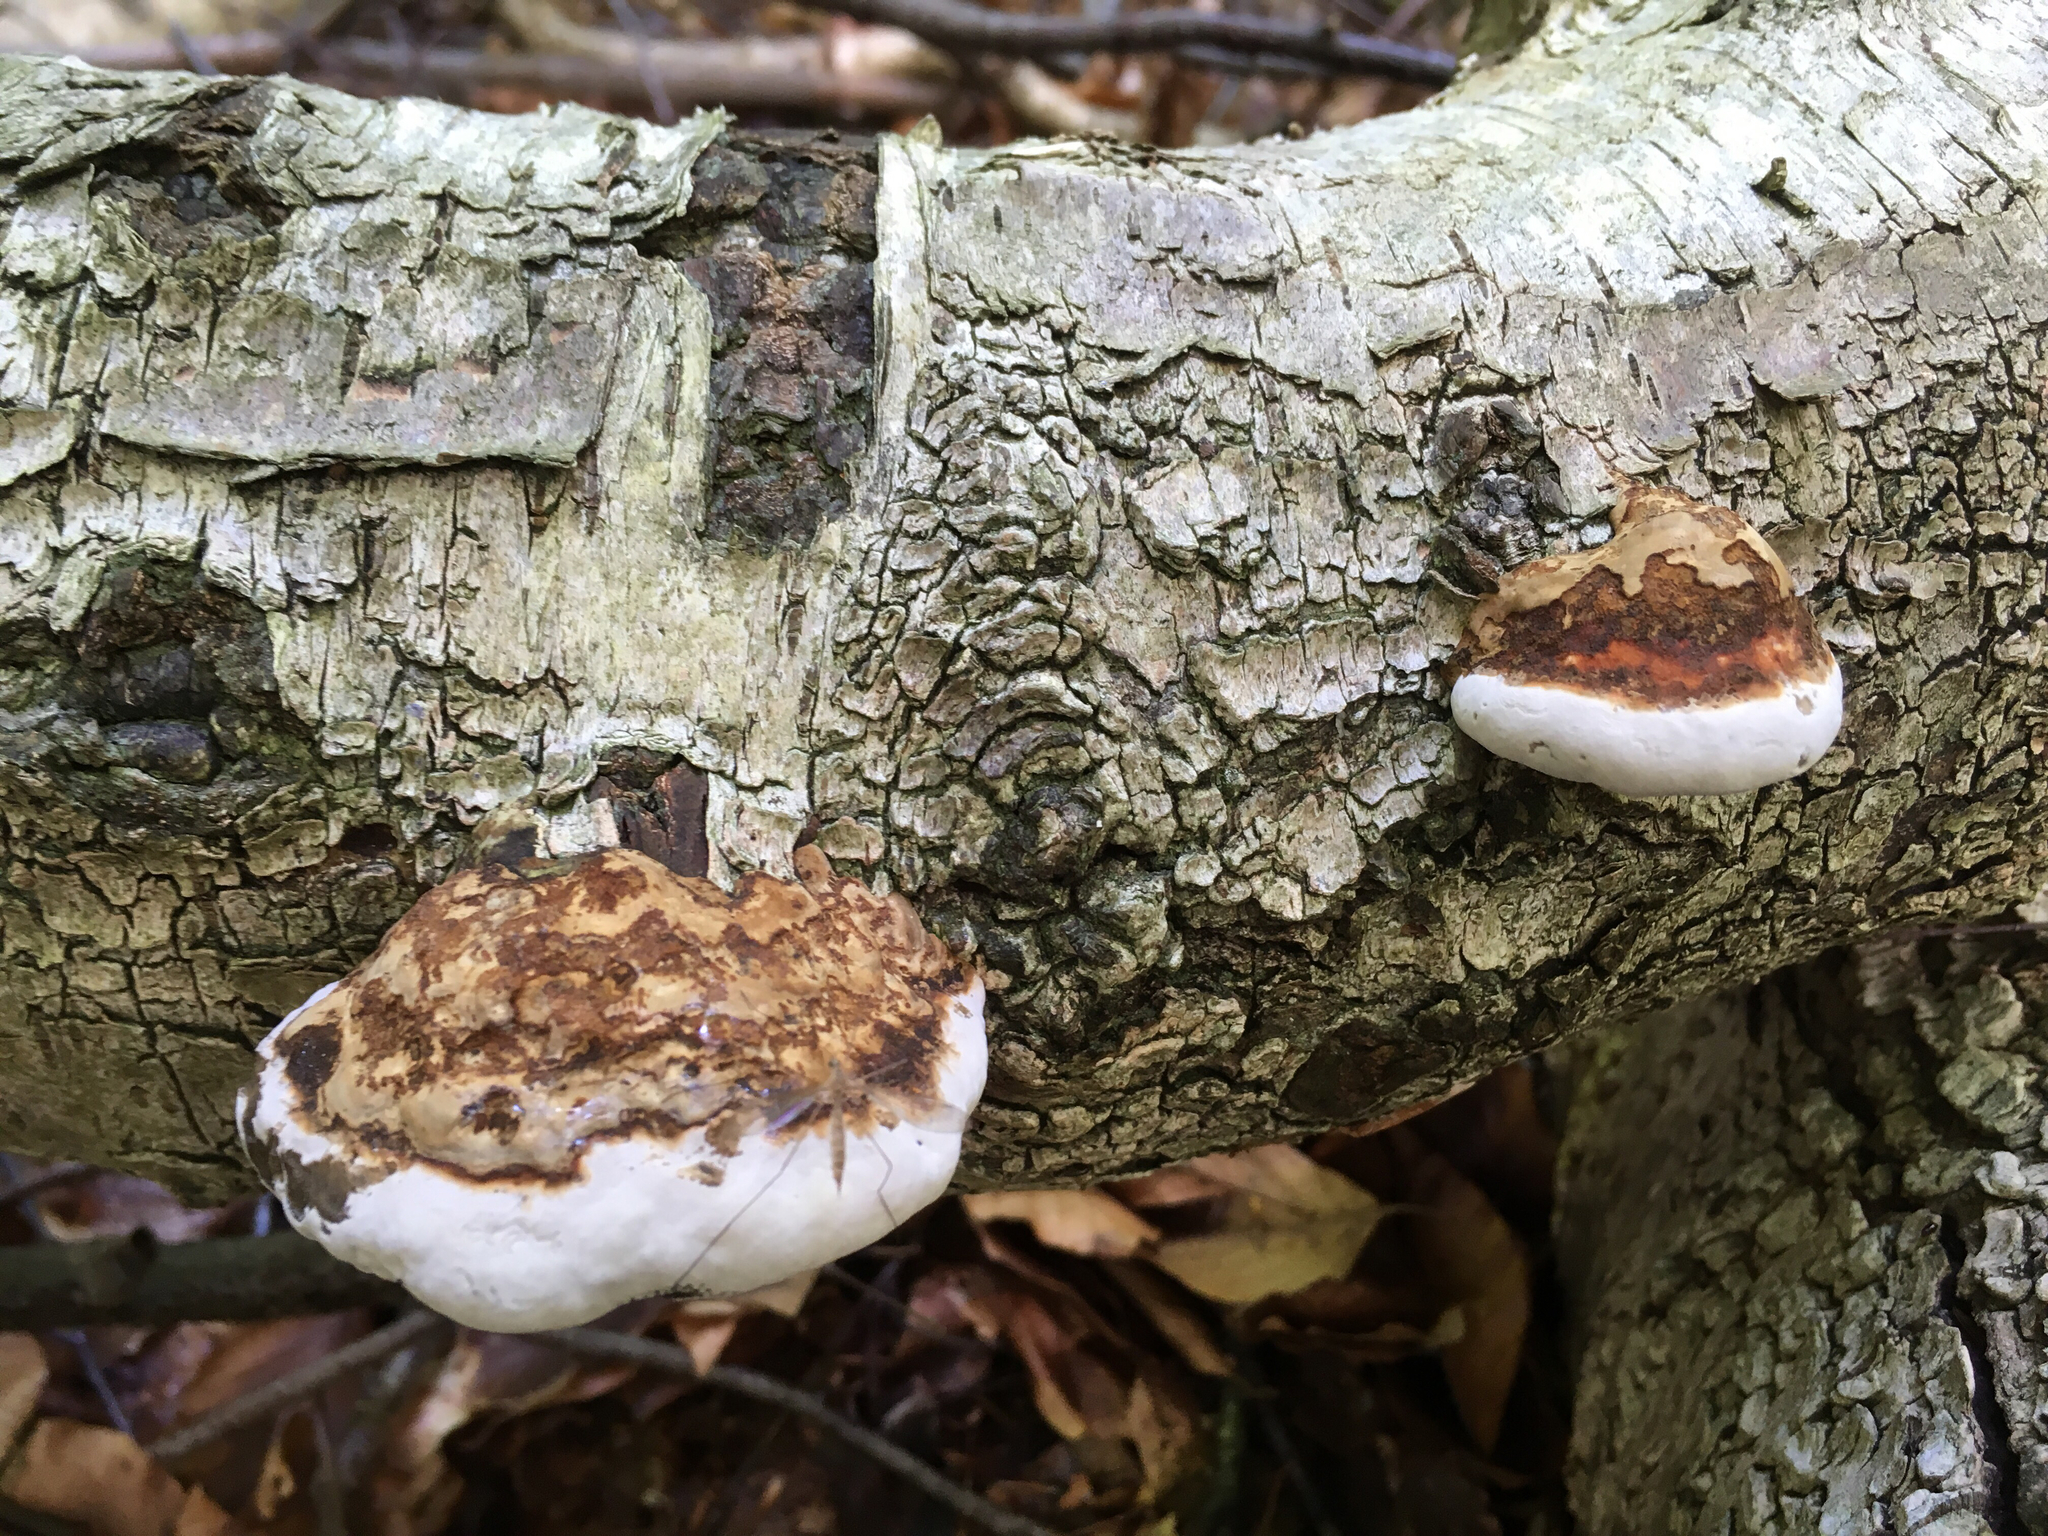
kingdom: Fungi
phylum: Basidiomycota
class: Agaricomycetes
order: Polyporales
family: Polyporaceae
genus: Fomes
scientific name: Fomes fomentarius
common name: Hoof fungus
